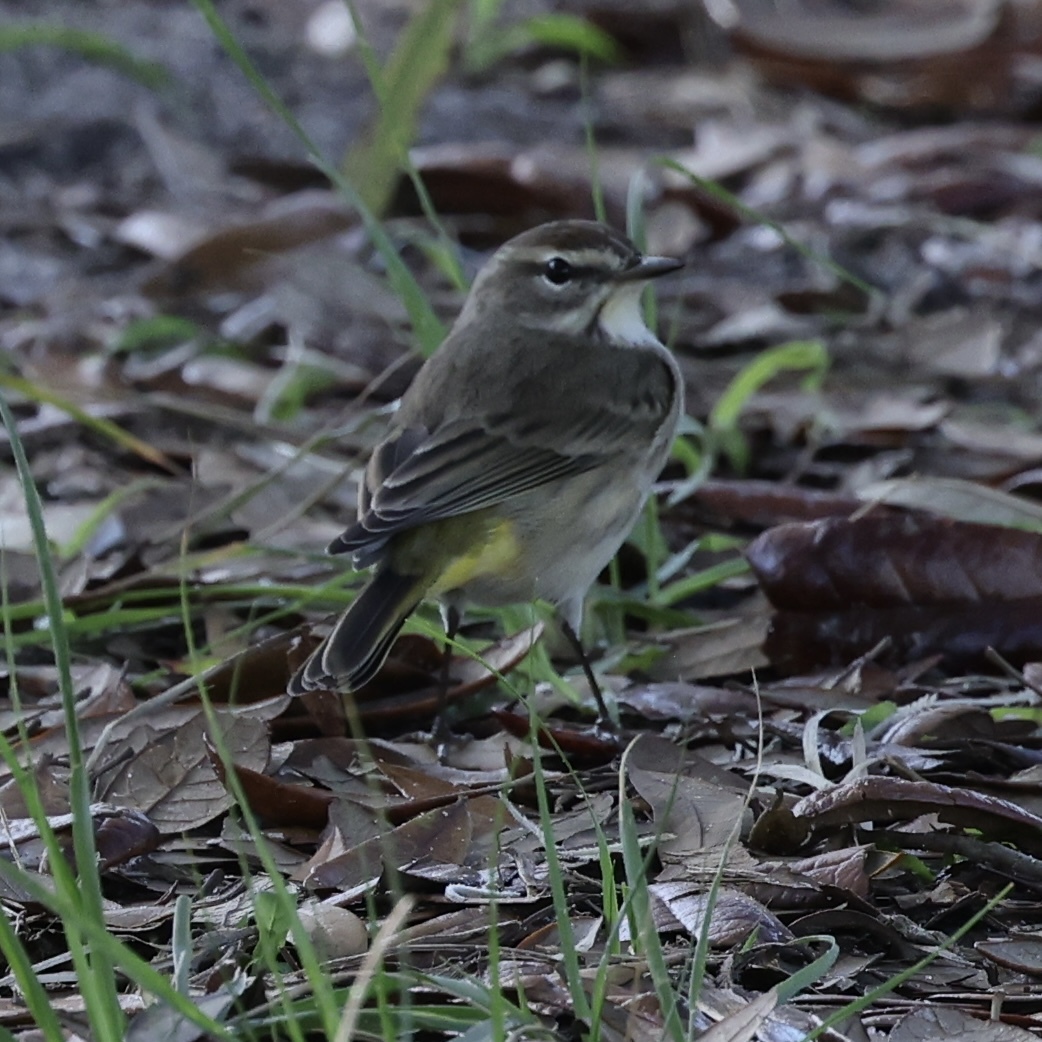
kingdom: Animalia
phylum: Chordata
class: Aves
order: Passeriformes
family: Parulidae
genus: Setophaga
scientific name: Setophaga palmarum
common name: Palm warbler
